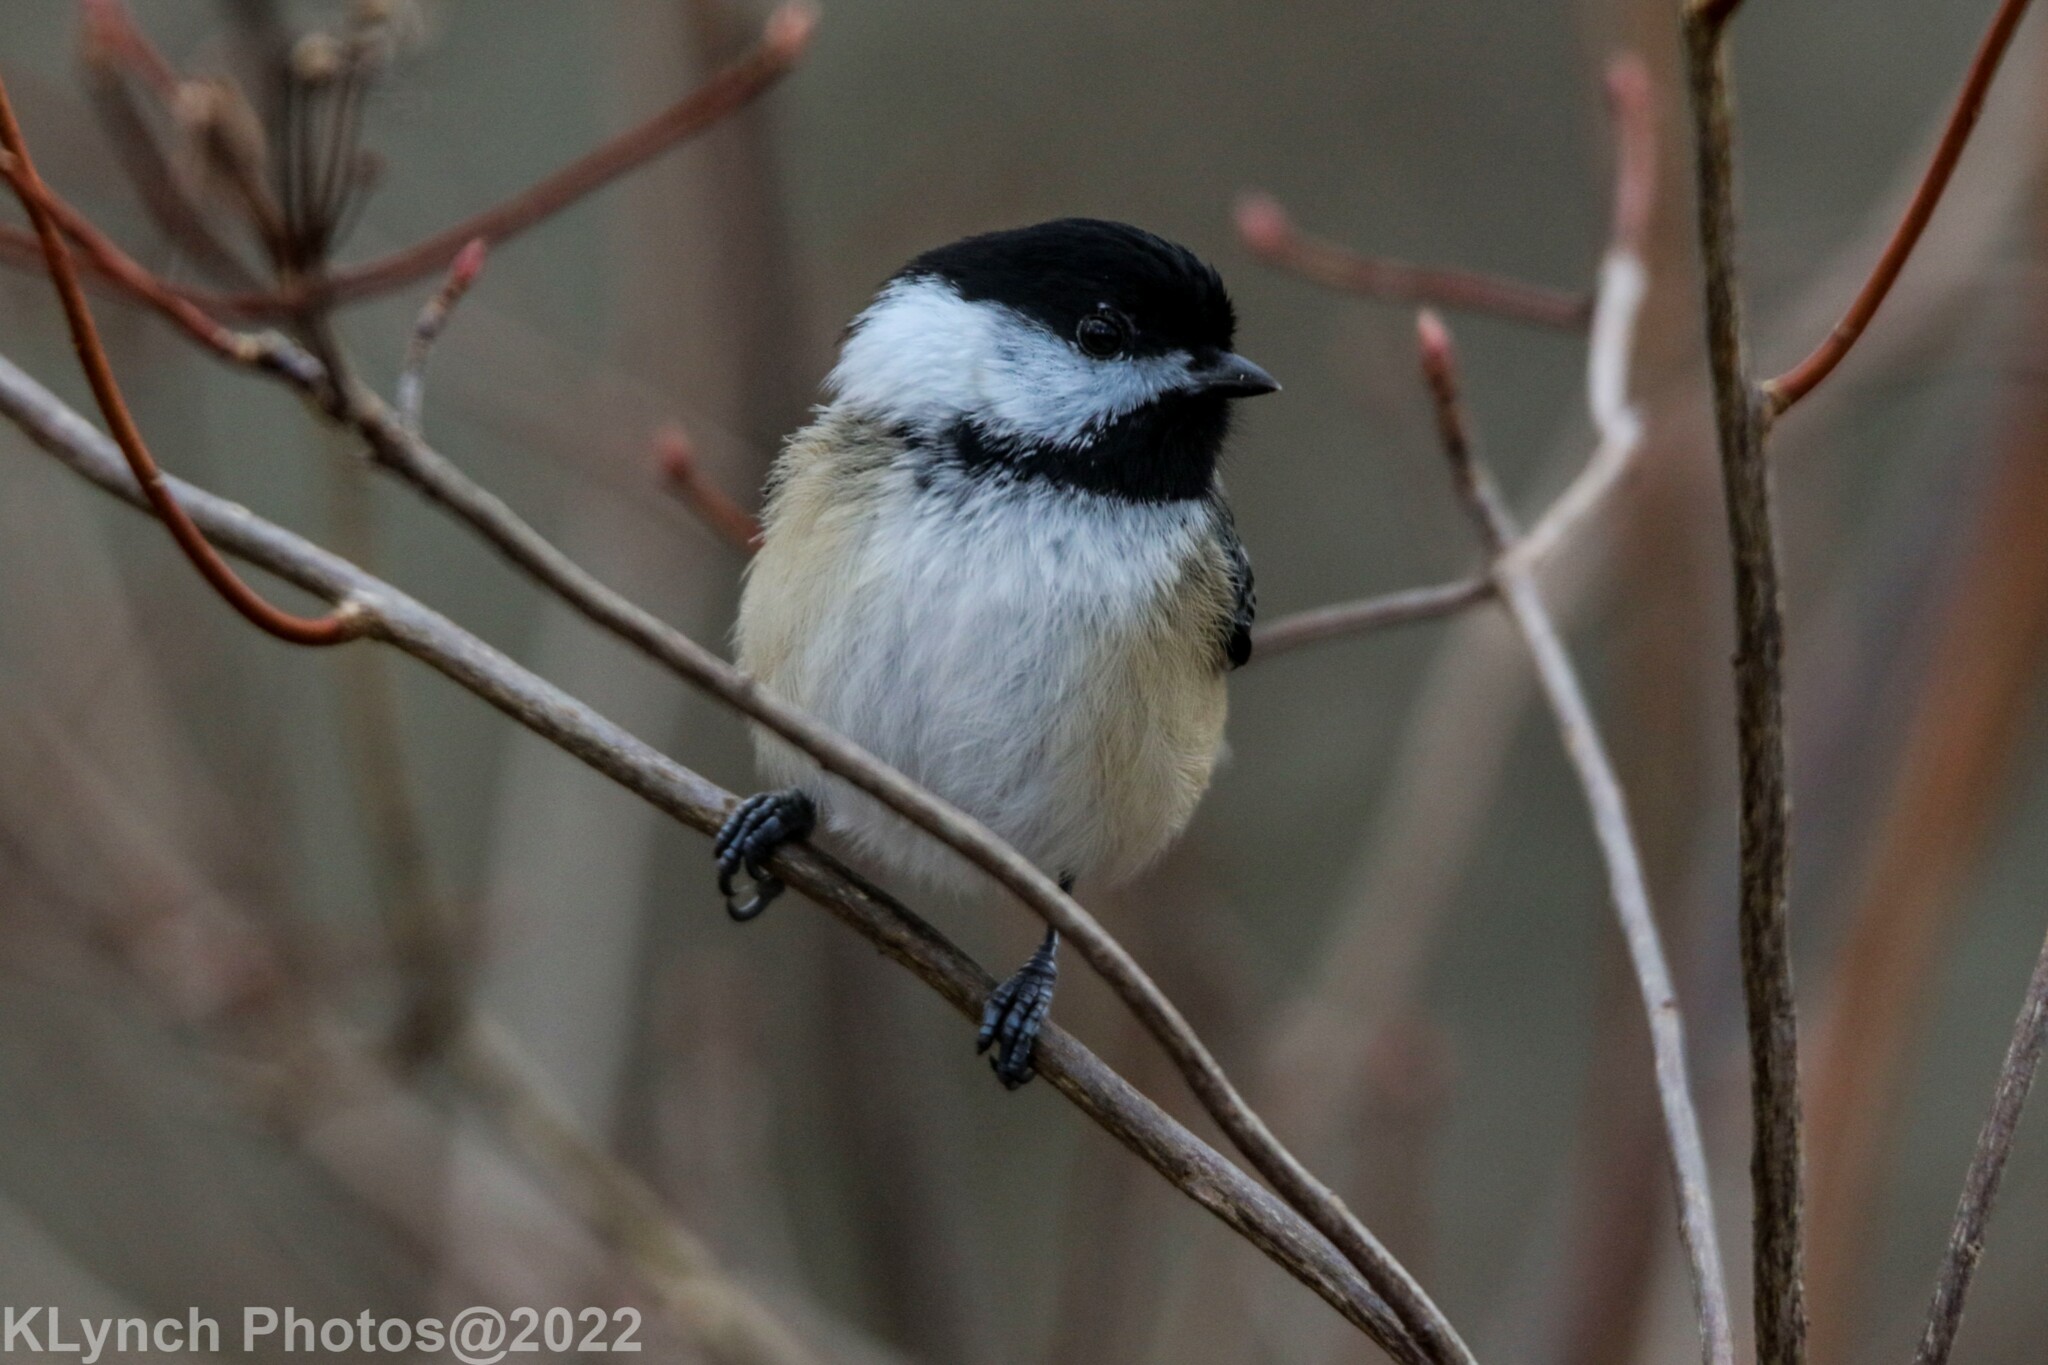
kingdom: Animalia
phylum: Chordata
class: Aves
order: Passeriformes
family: Paridae
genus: Poecile
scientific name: Poecile atricapillus
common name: Black-capped chickadee
